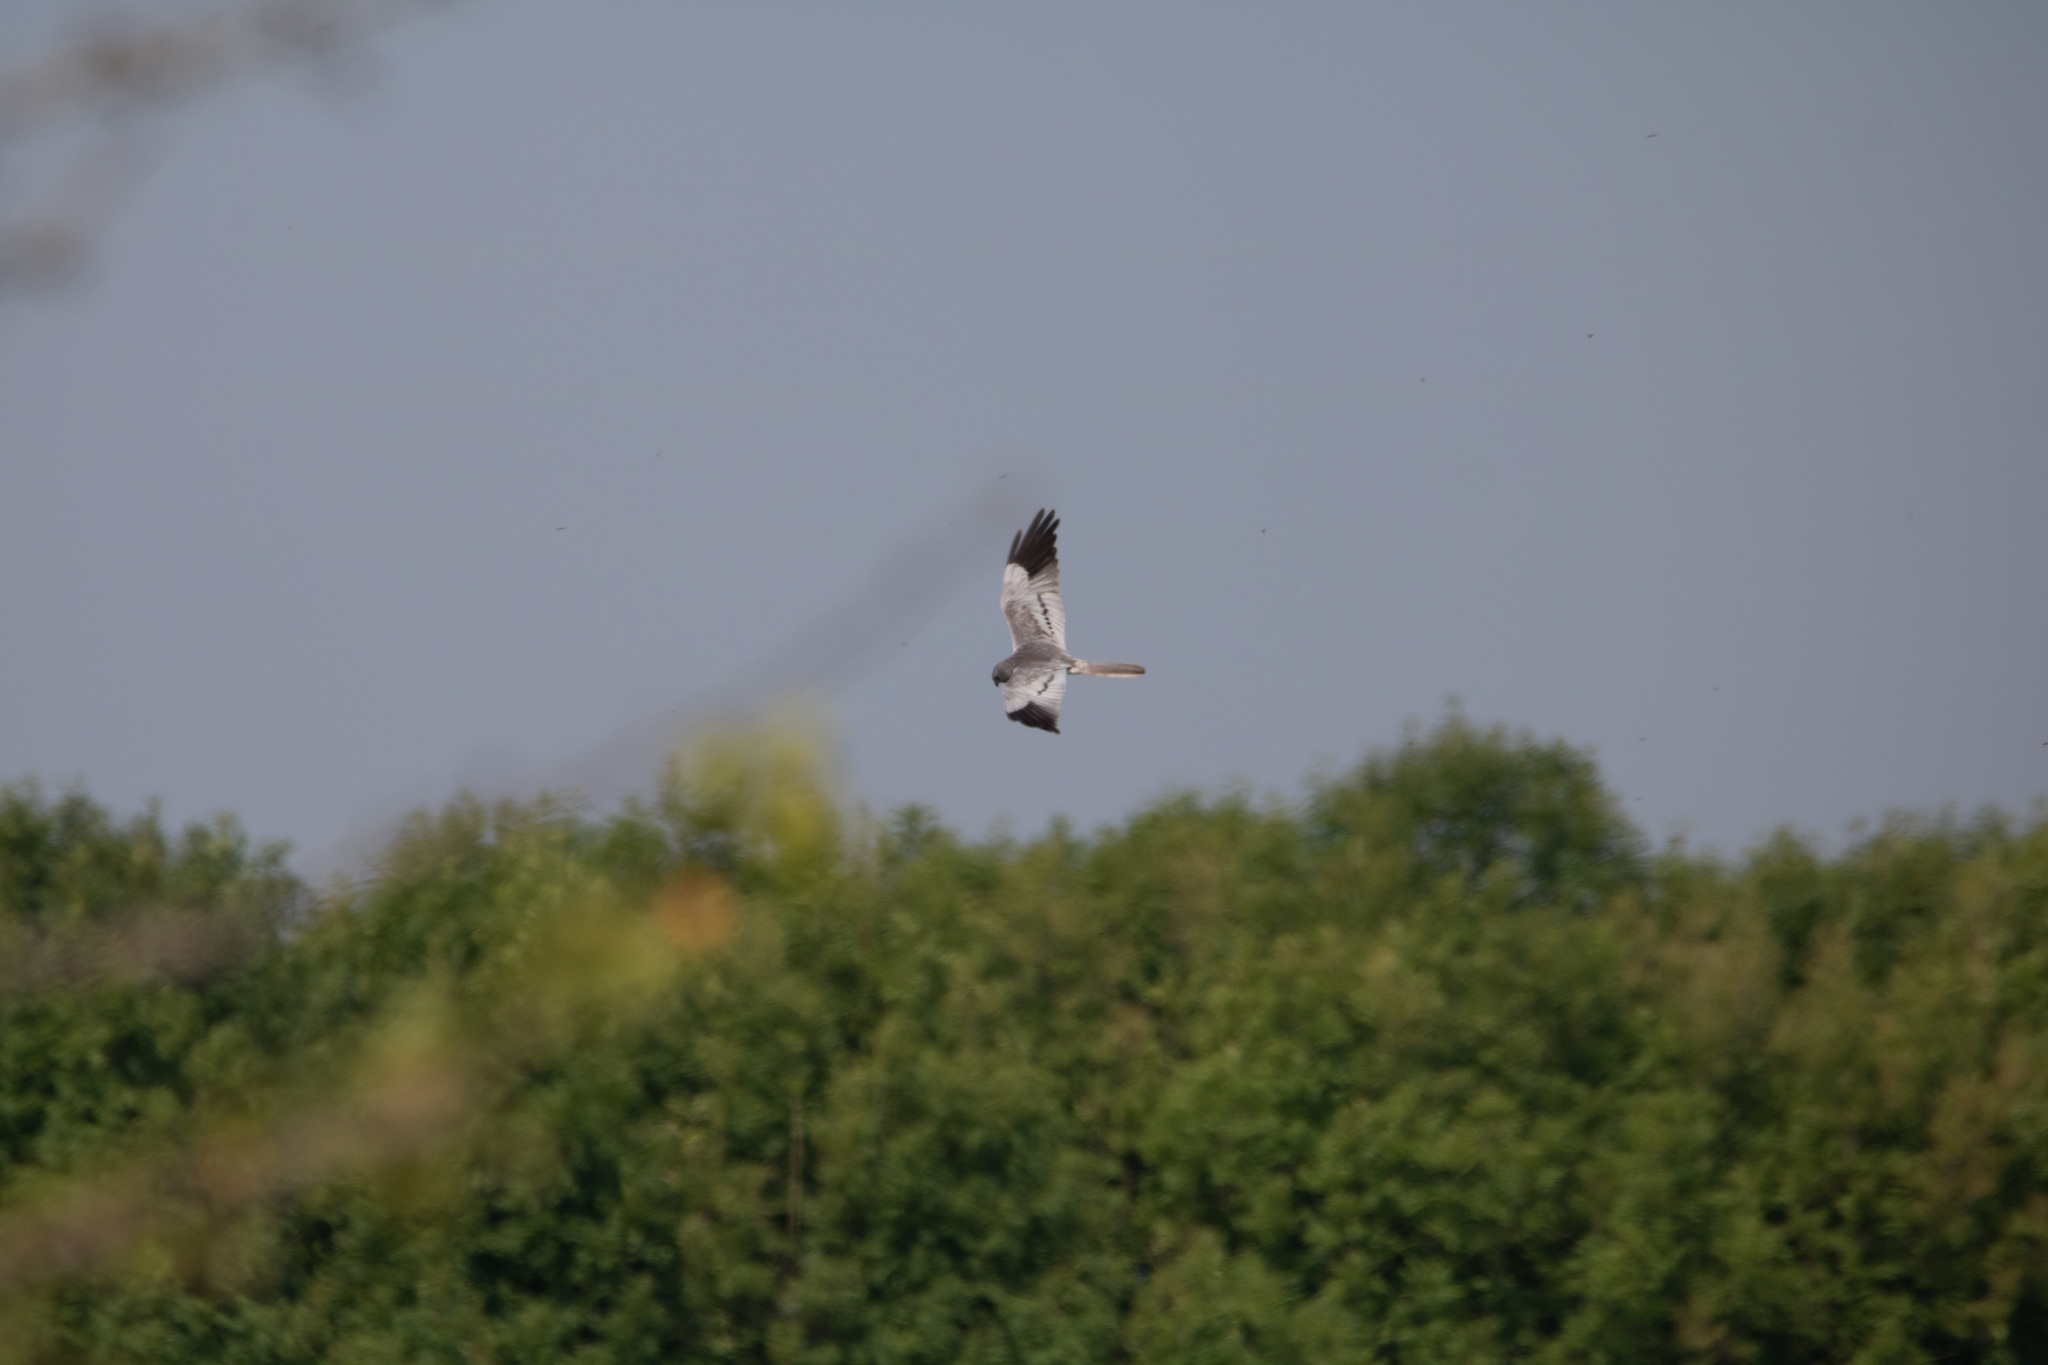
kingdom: Animalia
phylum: Chordata
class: Aves
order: Accipitriformes
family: Accipitridae
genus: Circus
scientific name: Circus pygargus
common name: Montagu's harrier
